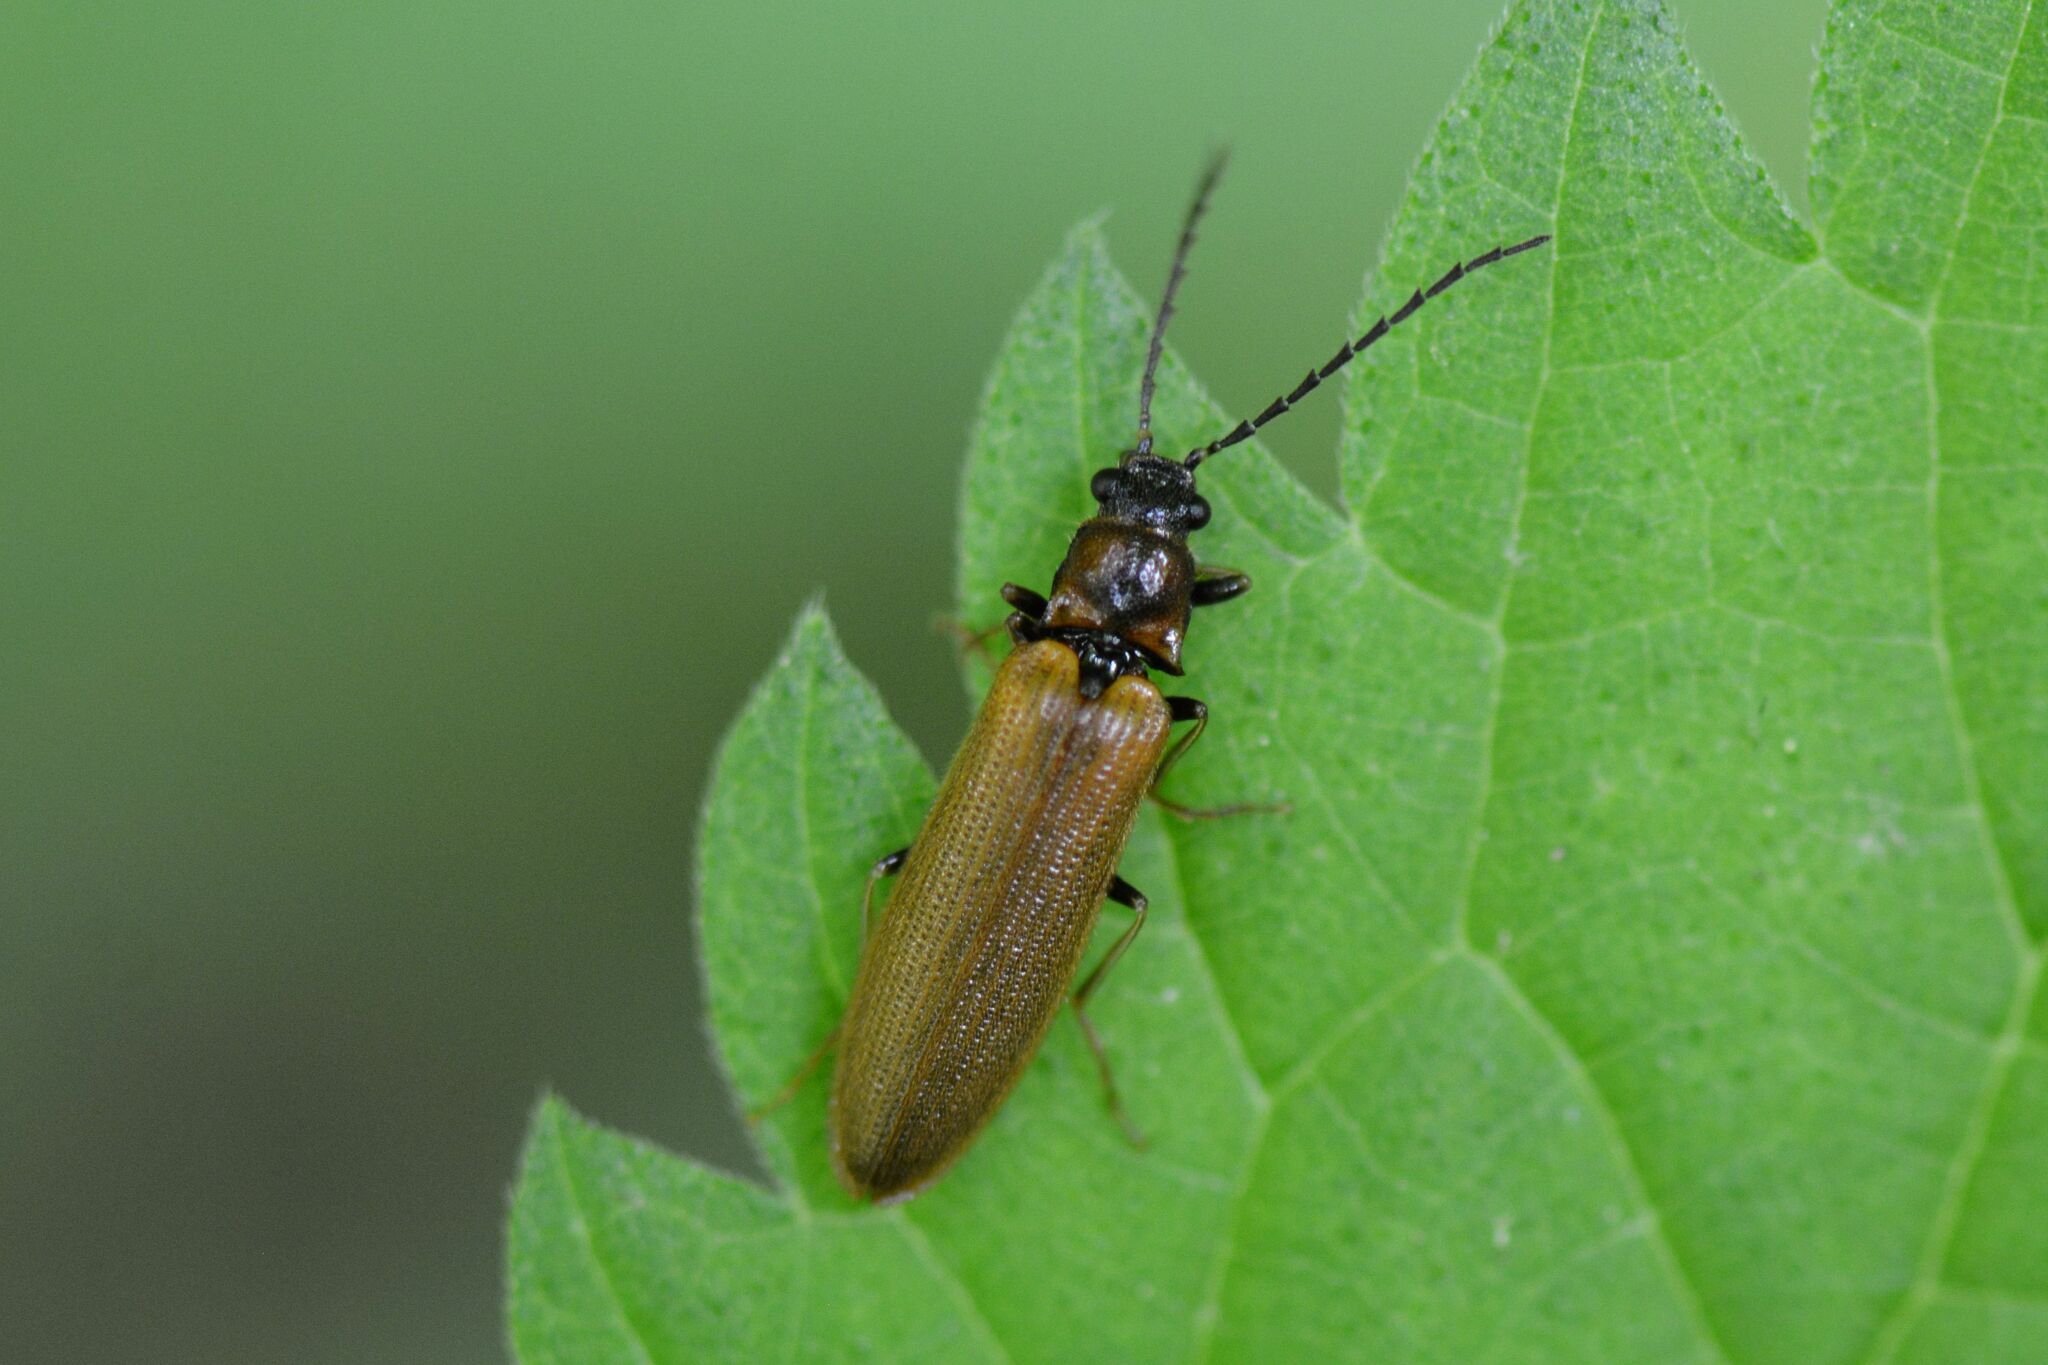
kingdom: Animalia
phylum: Arthropoda
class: Insecta
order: Coleoptera
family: Elateridae
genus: Denticollis
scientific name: Denticollis linearis
